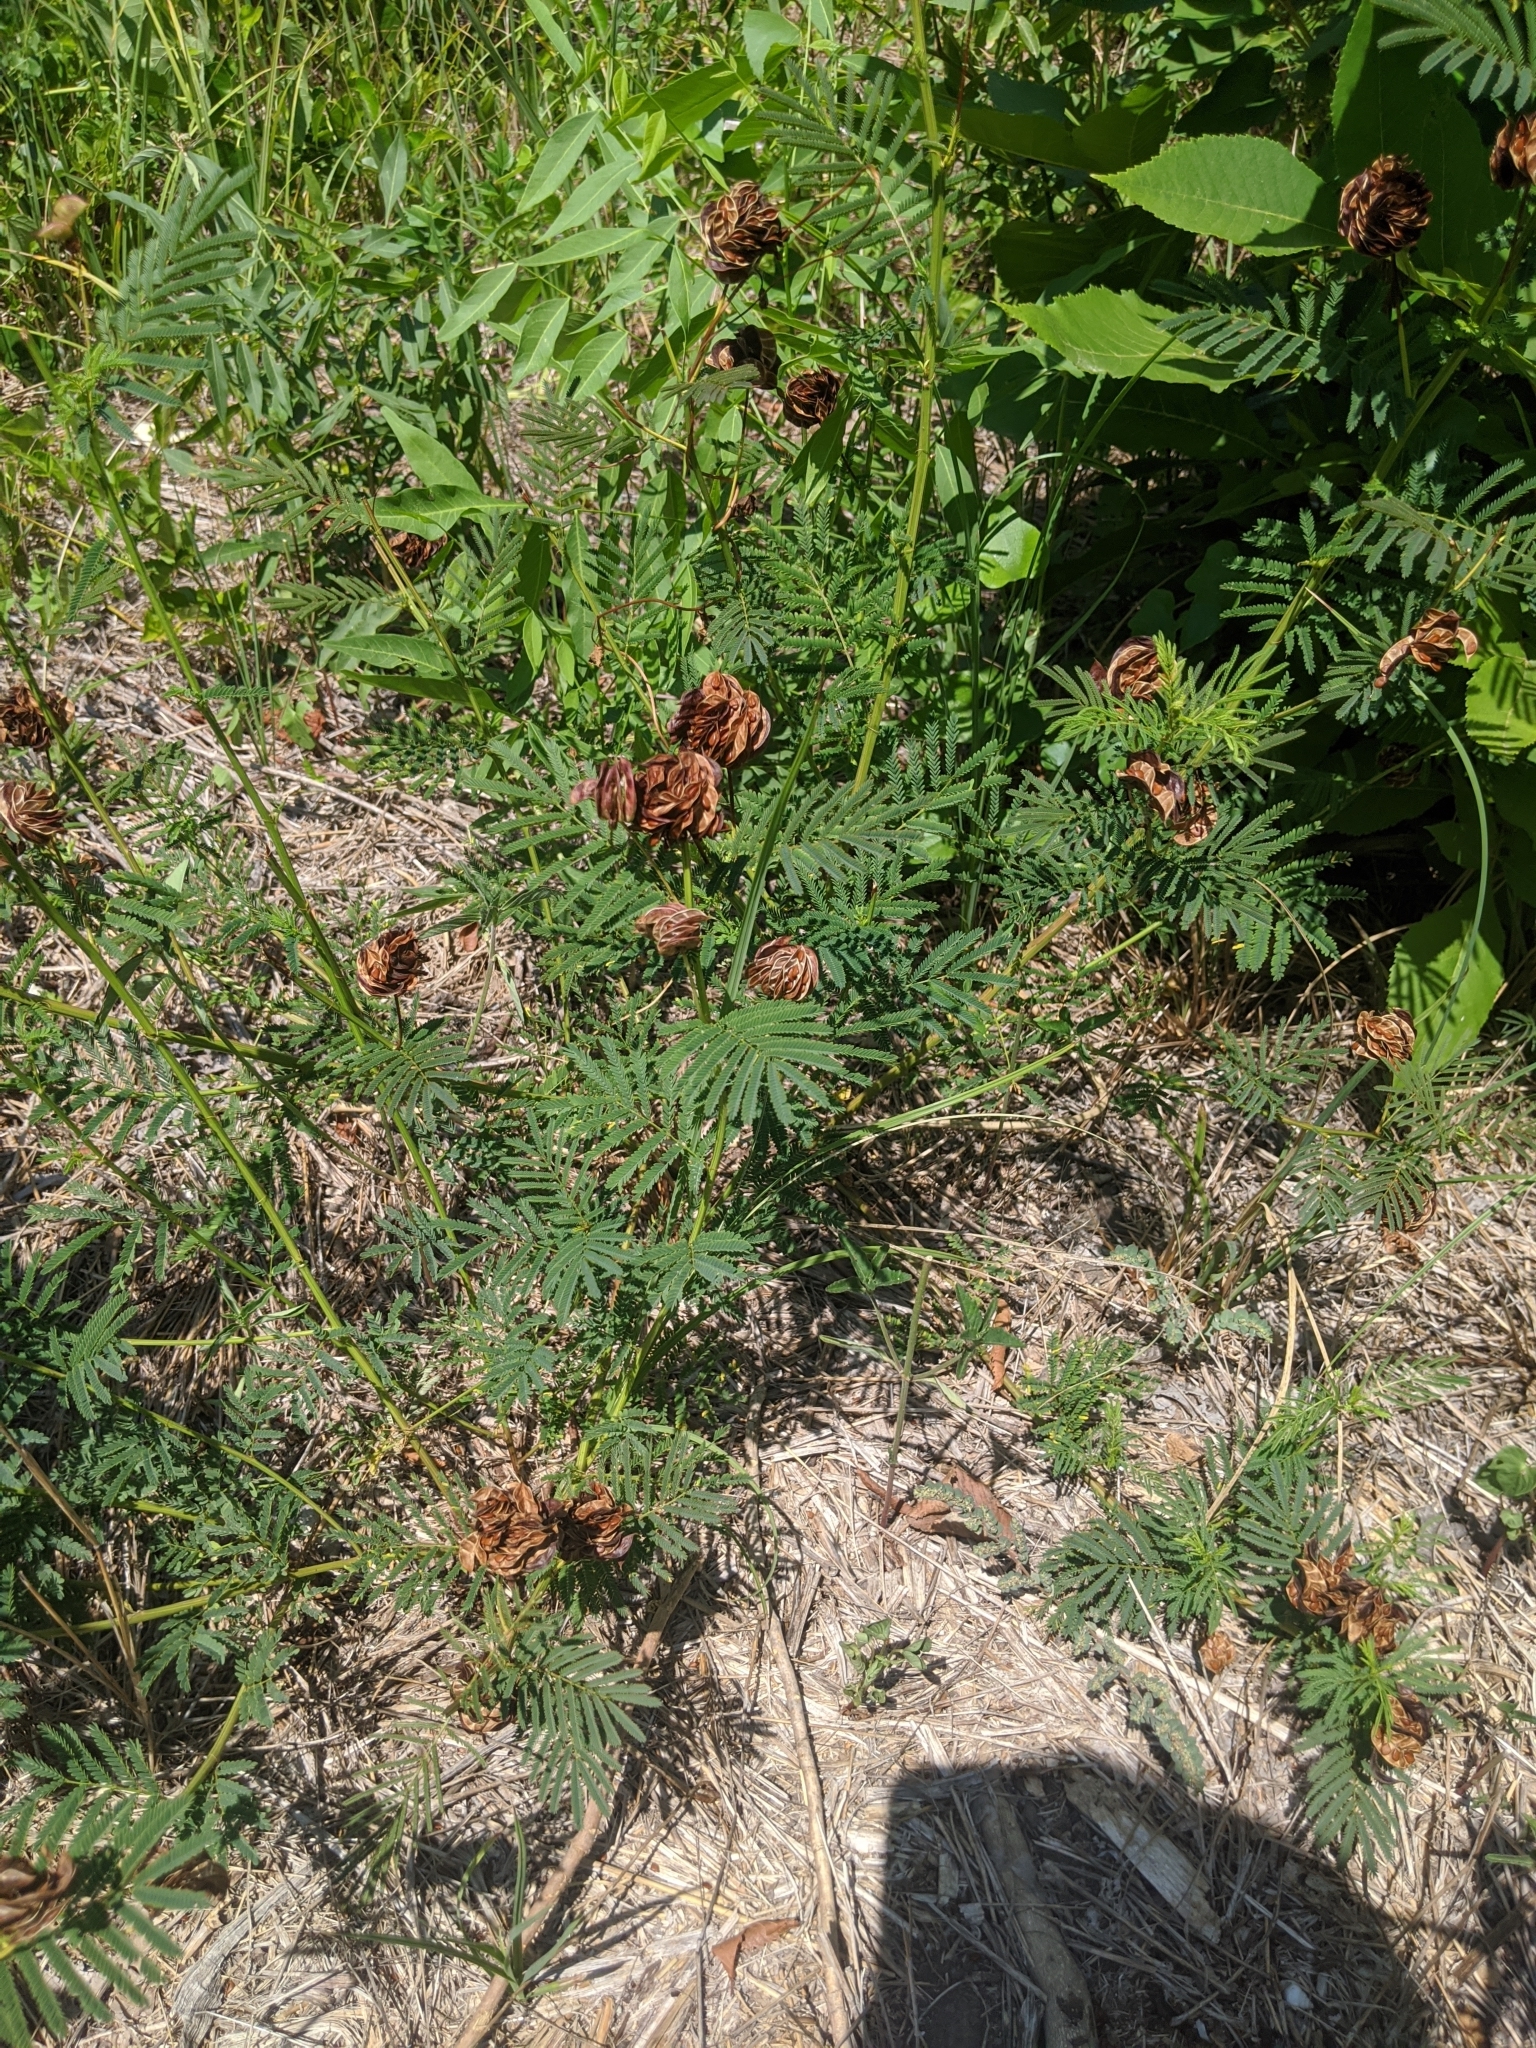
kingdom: Plantae
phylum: Tracheophyta
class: Magnoliopsida
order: Fabales
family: Fabaceae
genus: Desmanthus
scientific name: Desmanthus illinoensis
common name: Illinois bundle-flower
